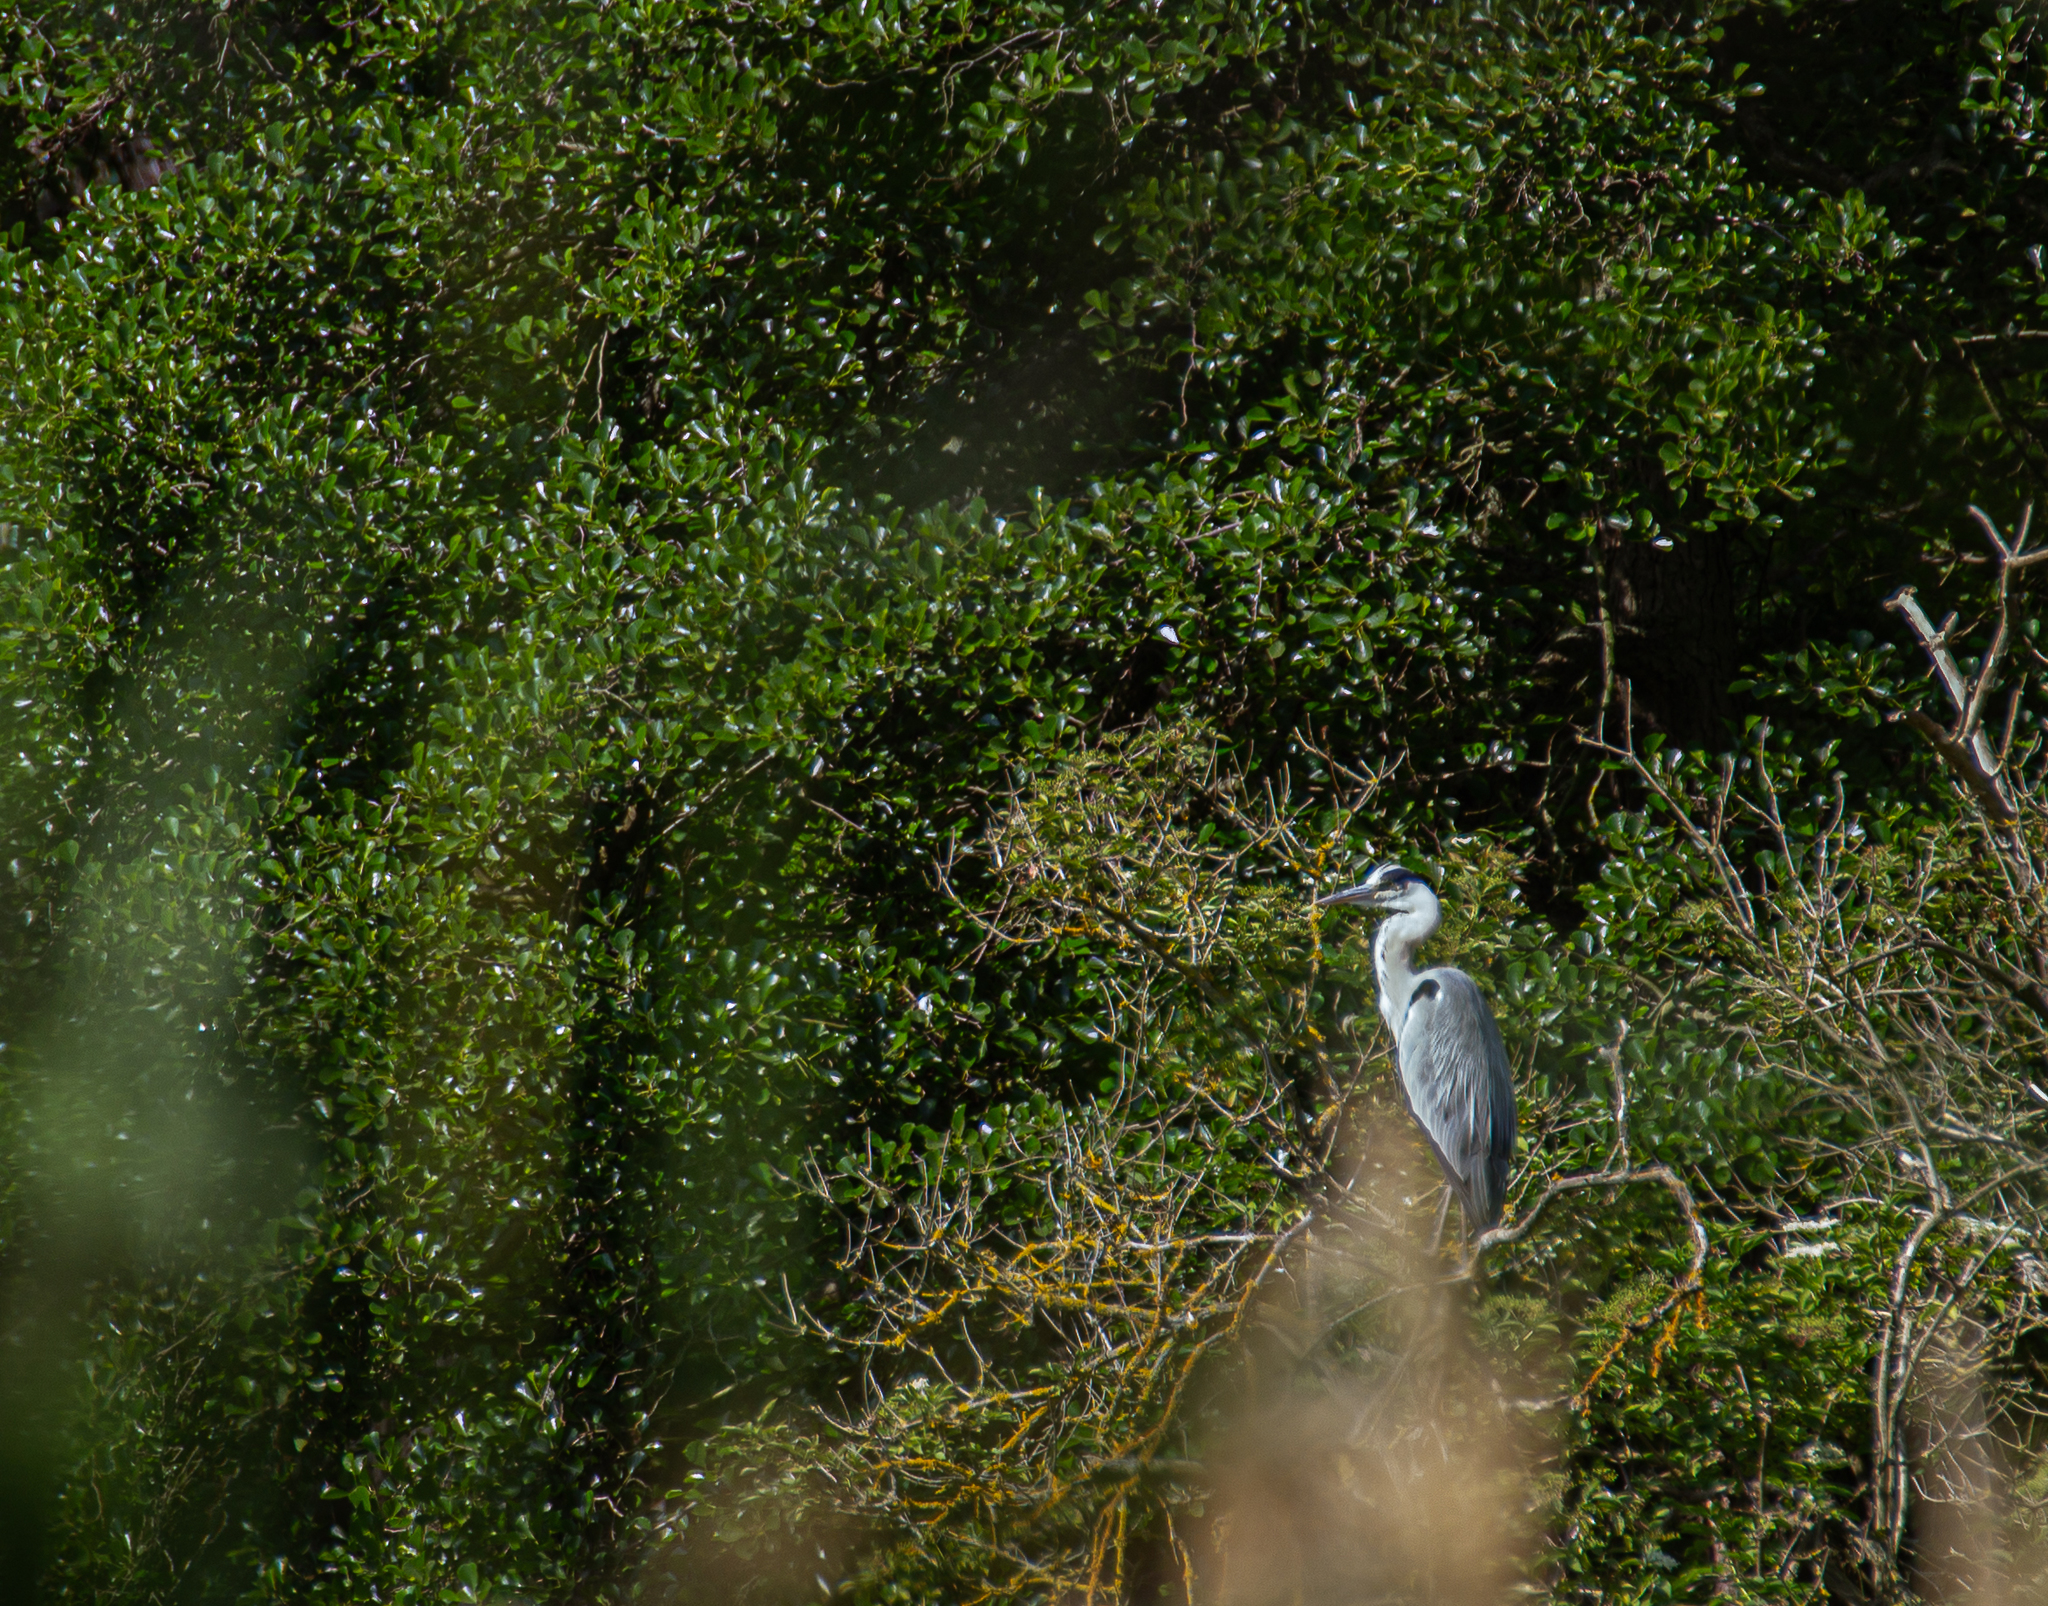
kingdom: Animalia
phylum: Chordata
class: Aves
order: Pelecaniformes
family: Ardeidae
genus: Ardea
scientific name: Ardea cinerea
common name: Grey heron
